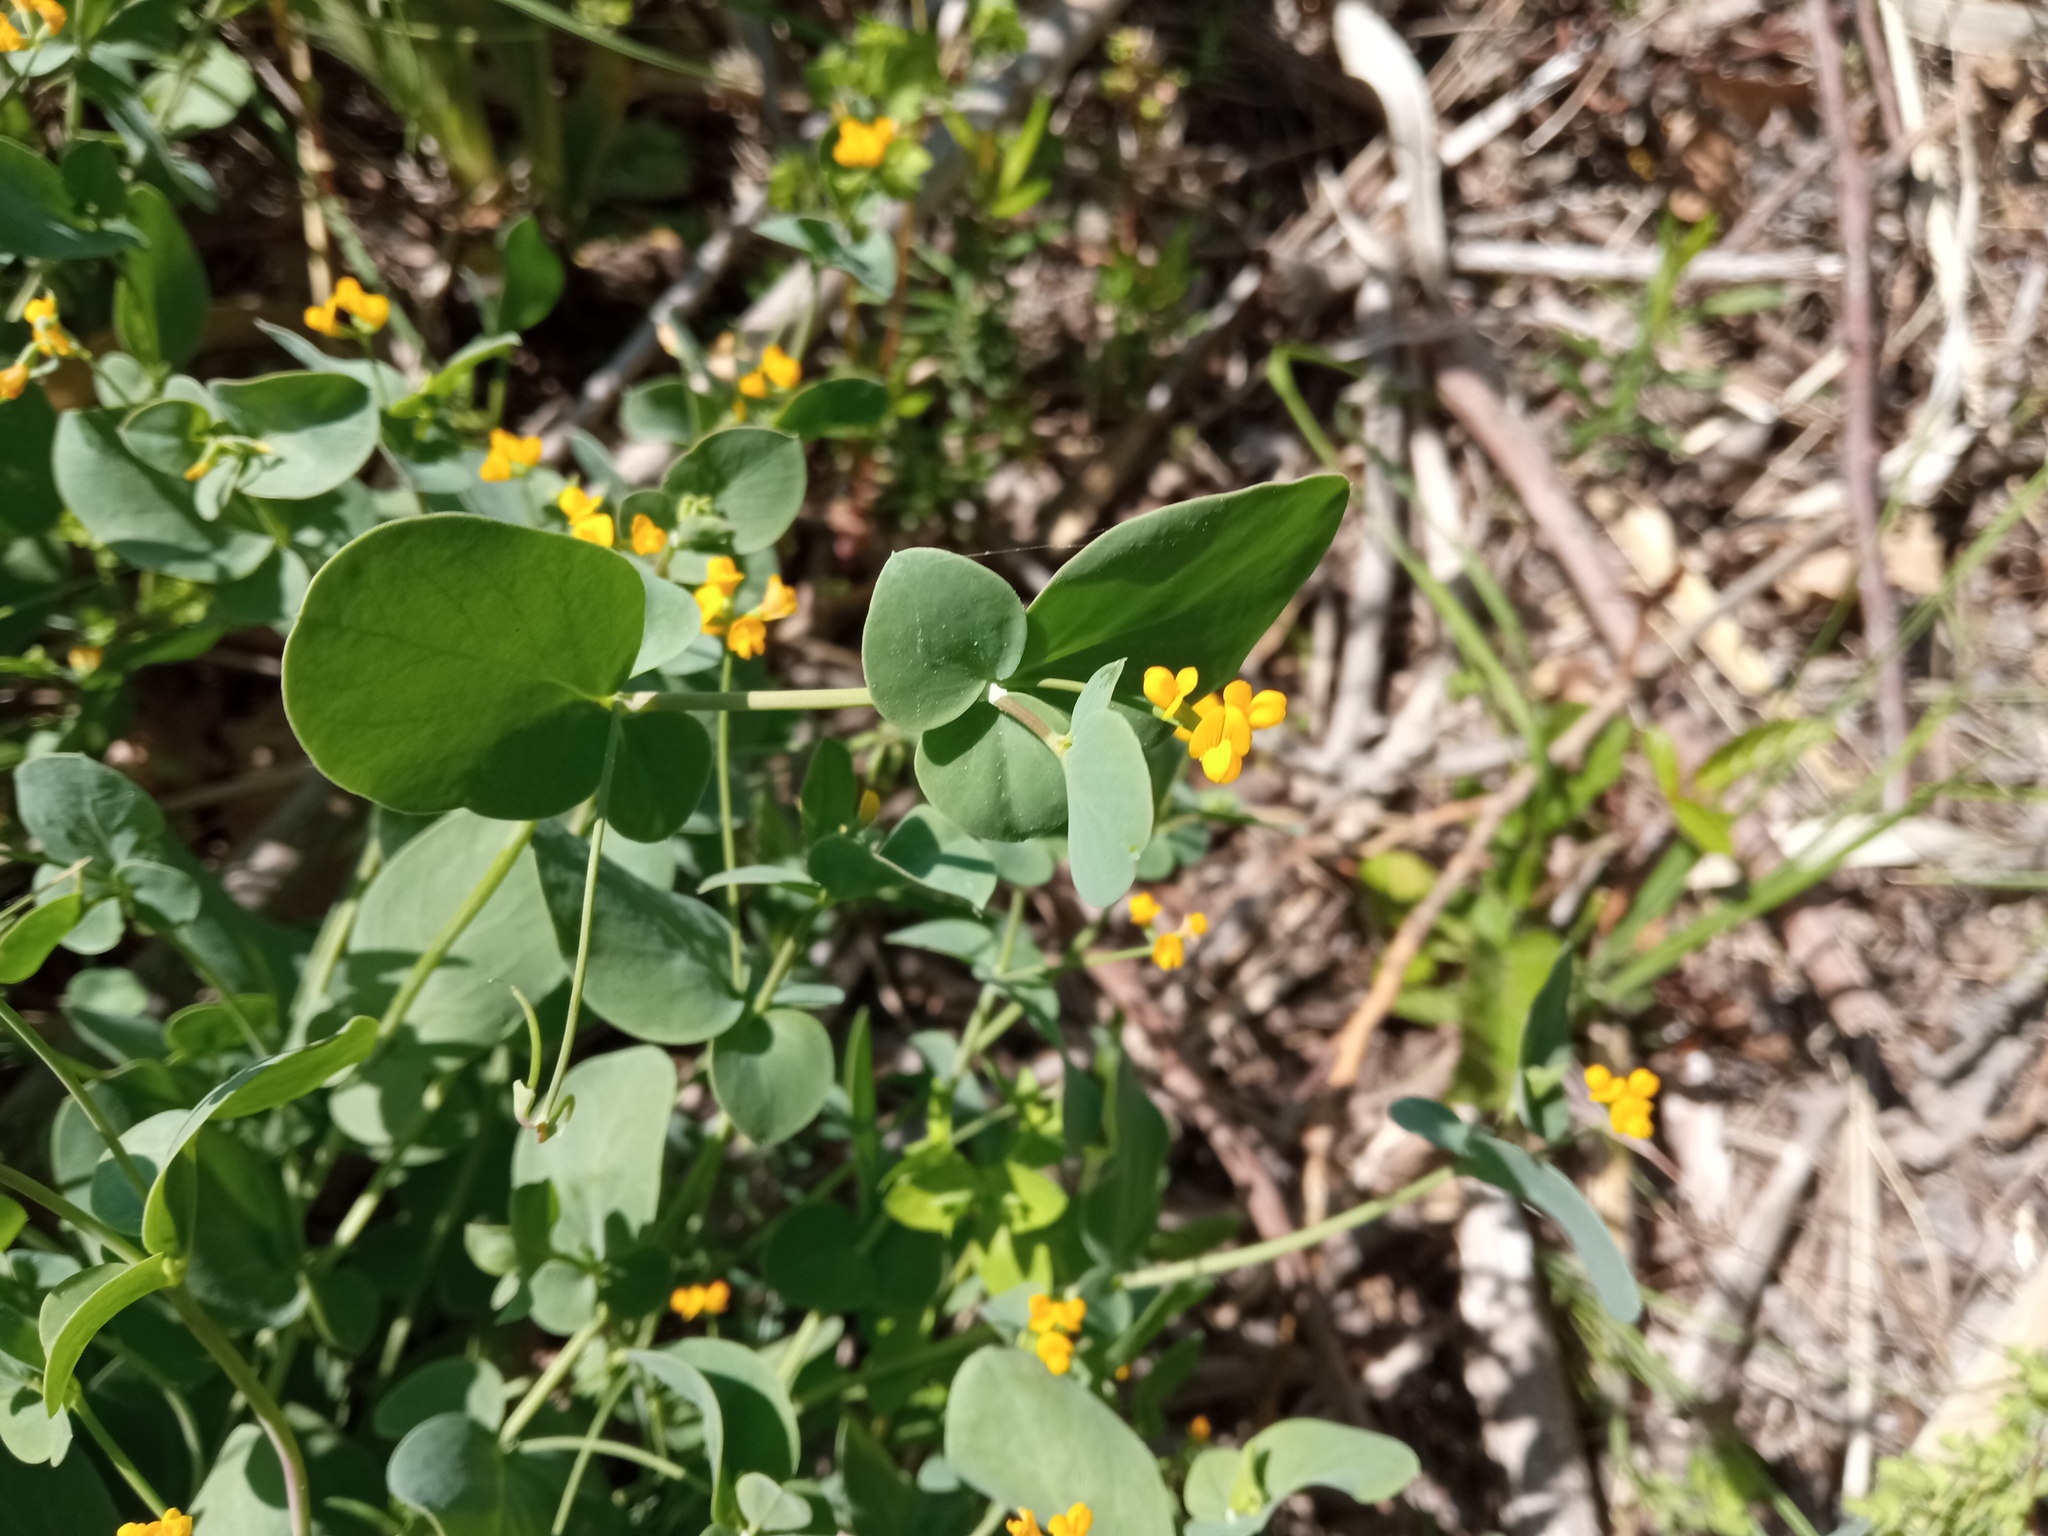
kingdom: Plantae
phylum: Tracheophyta
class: Magnoliopsida
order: Fabales
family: Fabaceae
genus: Coronilla
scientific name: Coronilla scorpioides
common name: Annual scorpion-vetch
